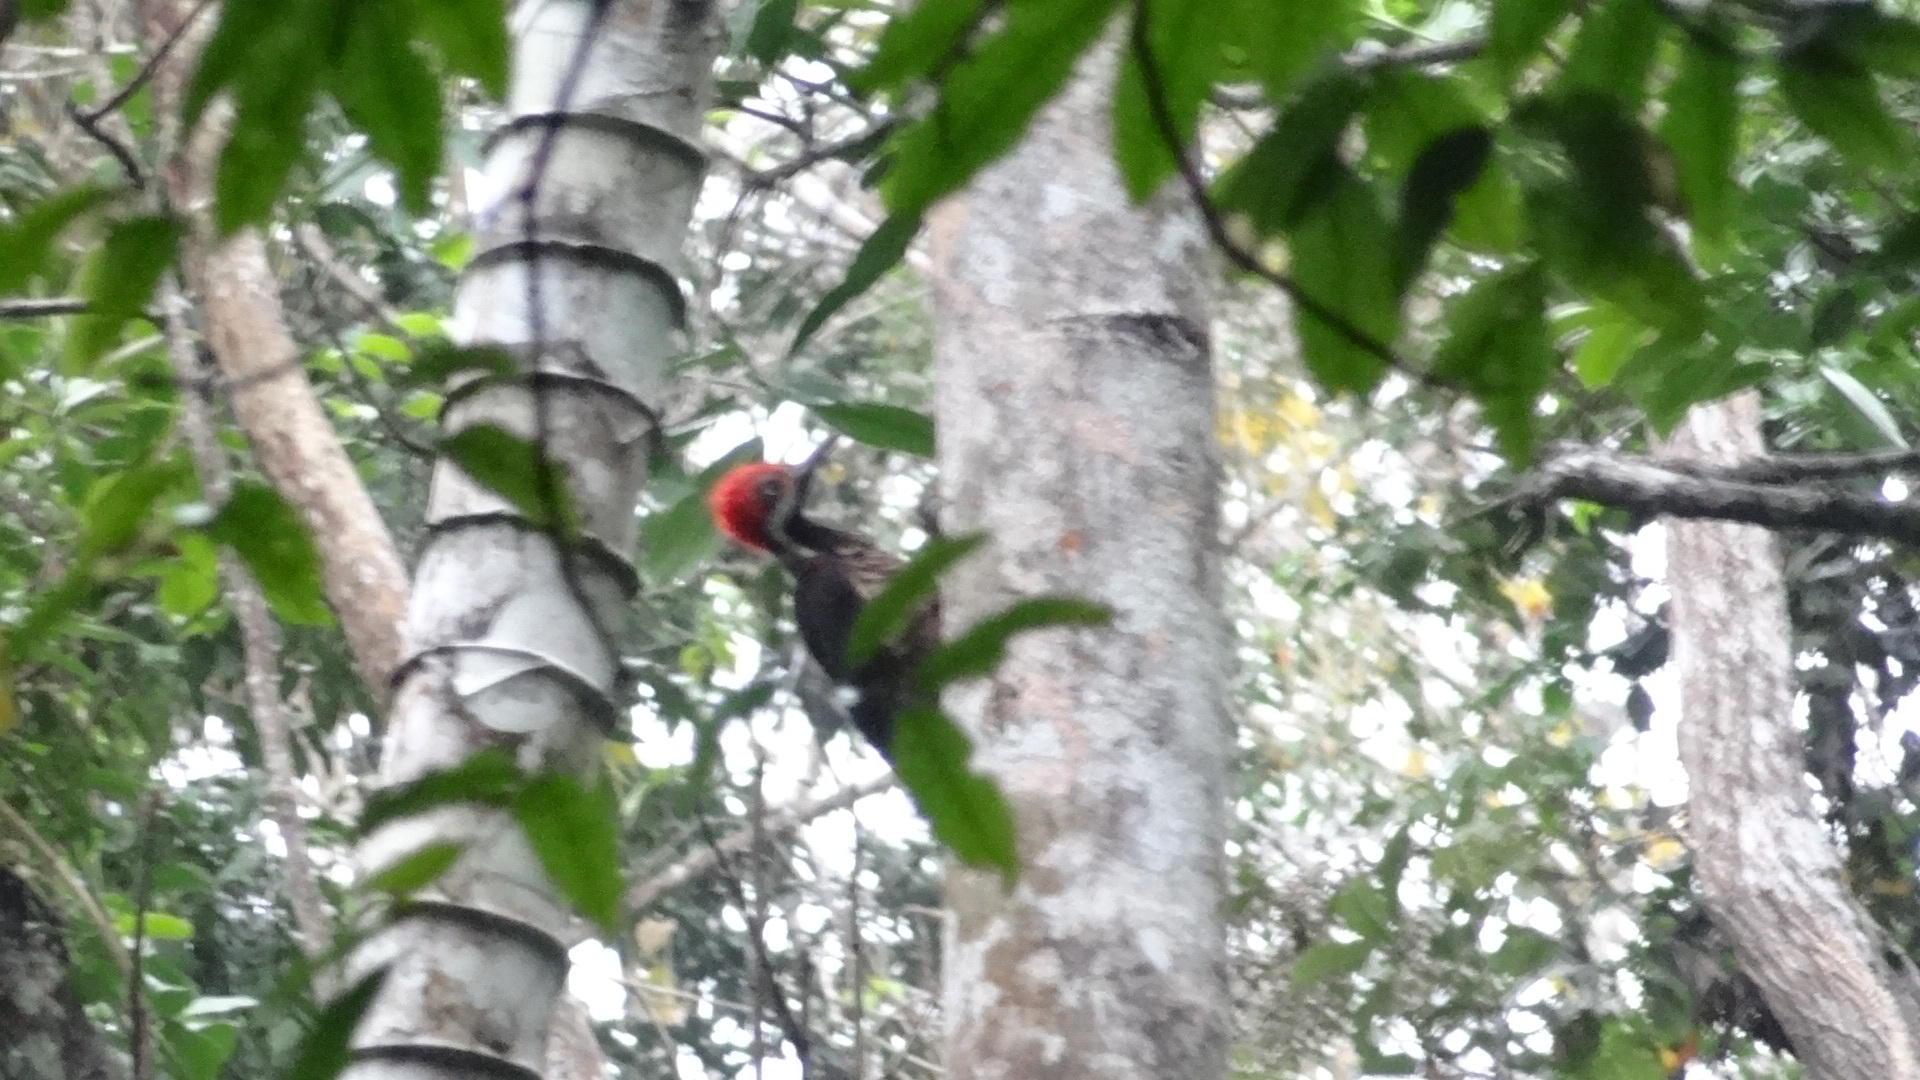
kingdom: Animalia
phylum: Chordata
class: Aves
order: Piciformes
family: Picidae
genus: Campephilus
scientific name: Campephilus gayaquilensis
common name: Guayaquil woodpecker
